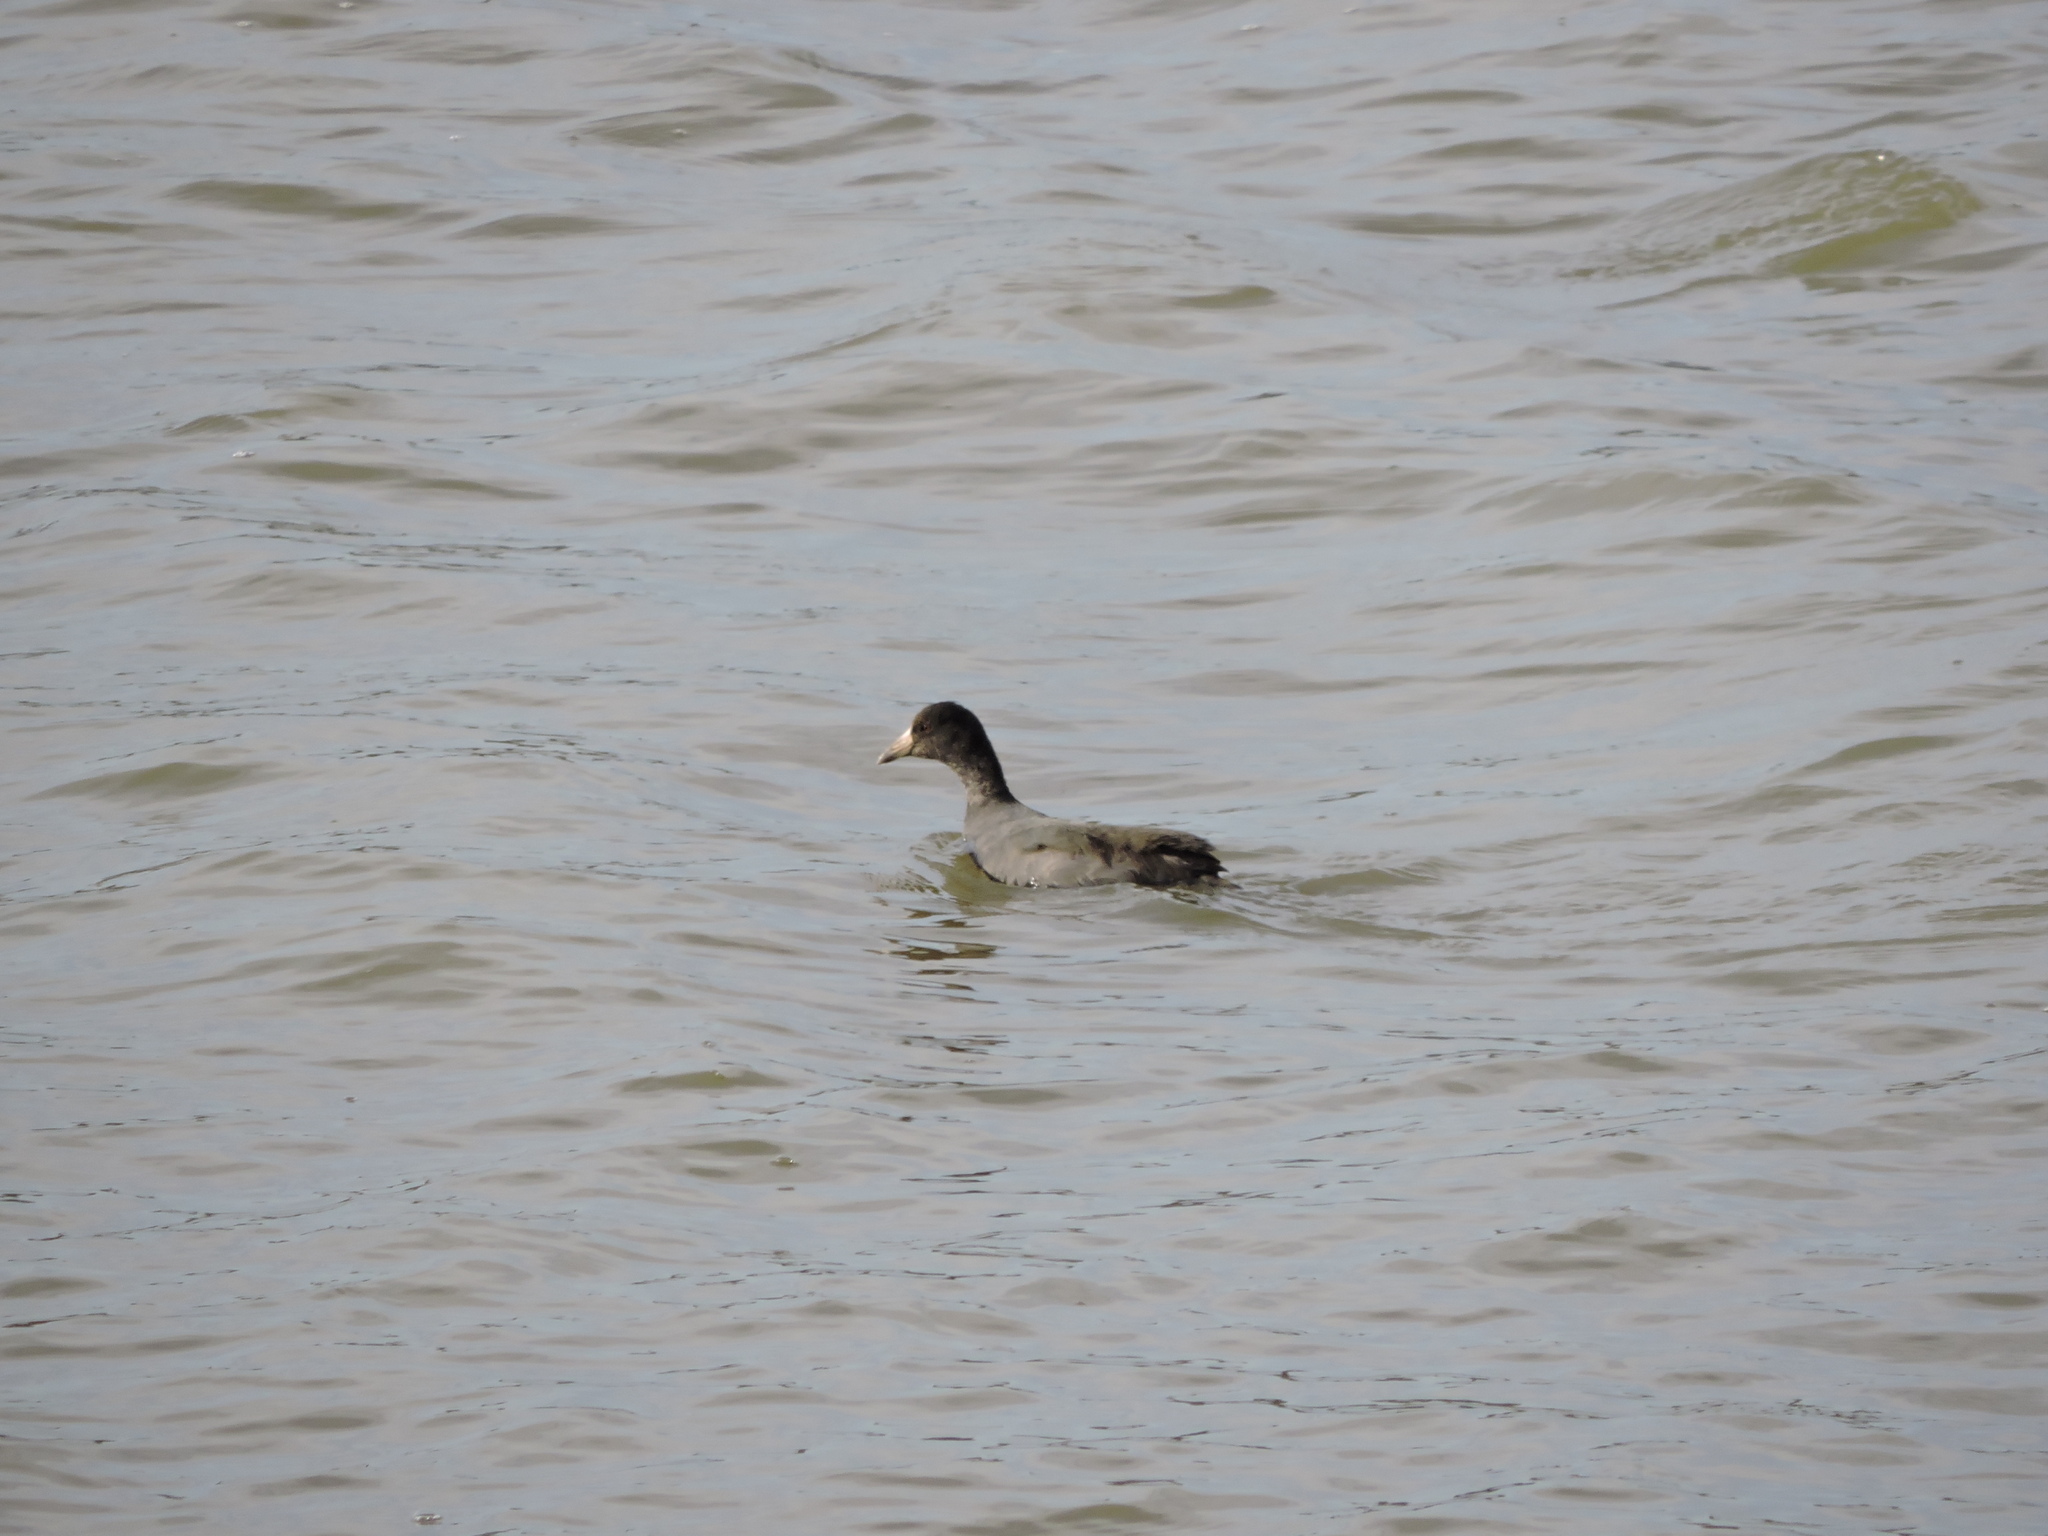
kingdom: Animalia
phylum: Chordata
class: Aves
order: Gruiformes
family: Rallidae
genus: Fulica
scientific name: Fulica americana
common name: American coot
